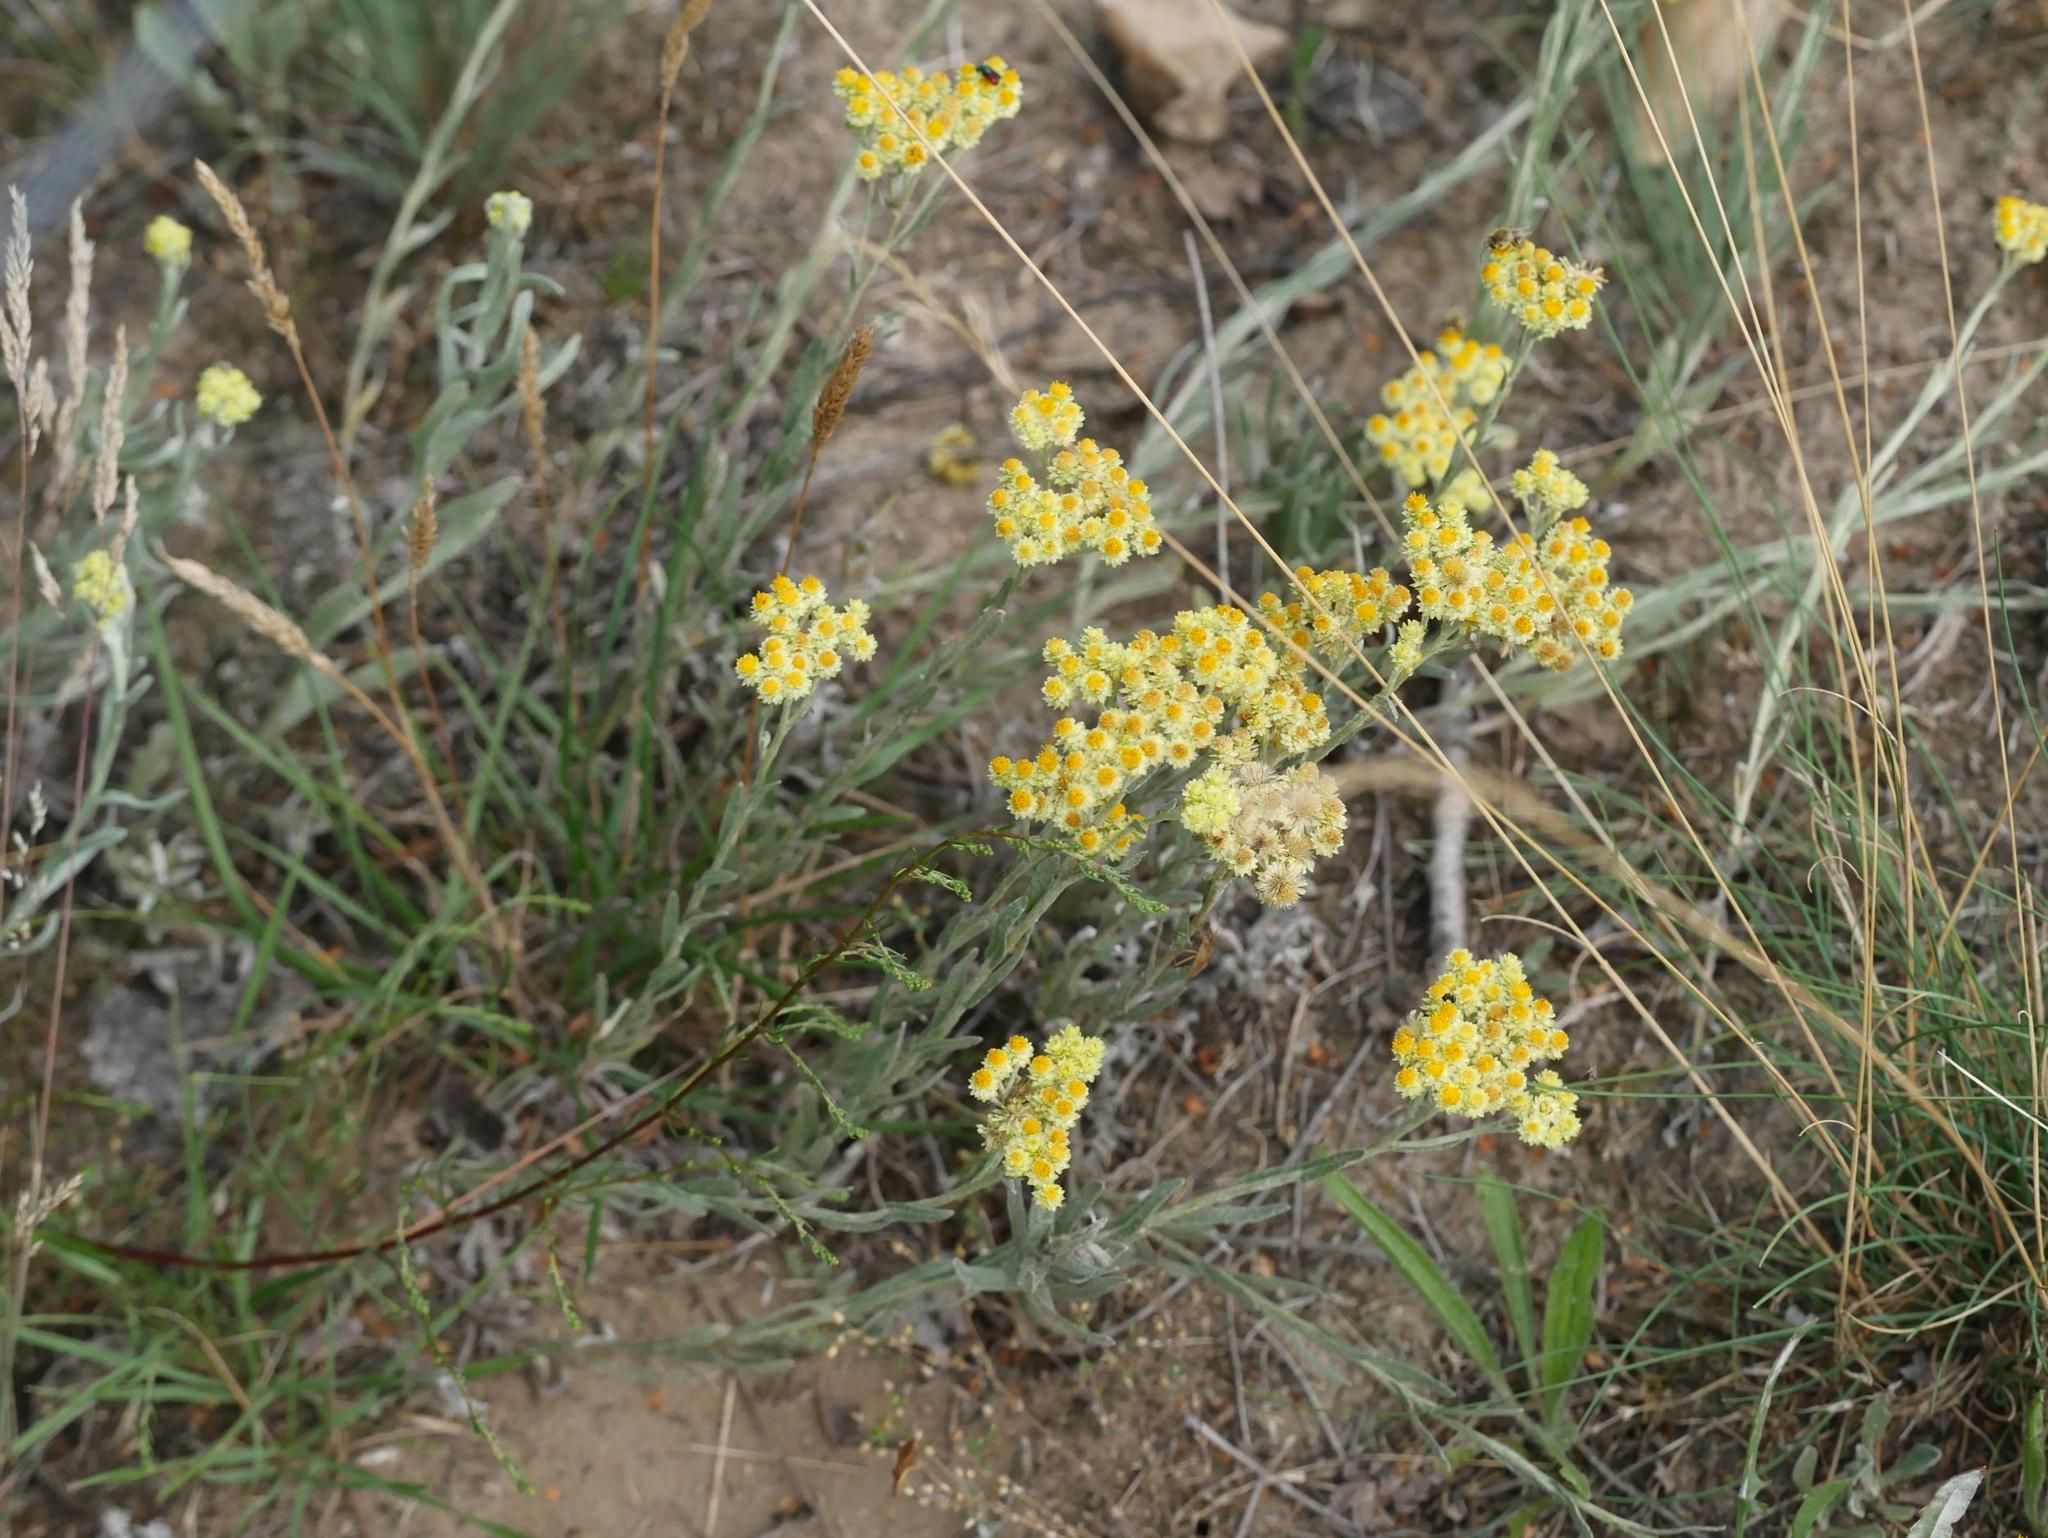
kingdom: Plantae
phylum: Tracheophyta
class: Magnoliopsida
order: Asterales
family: Asteraceae
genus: Helichrysum
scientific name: Helichrysum arenarium
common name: Strawflower
